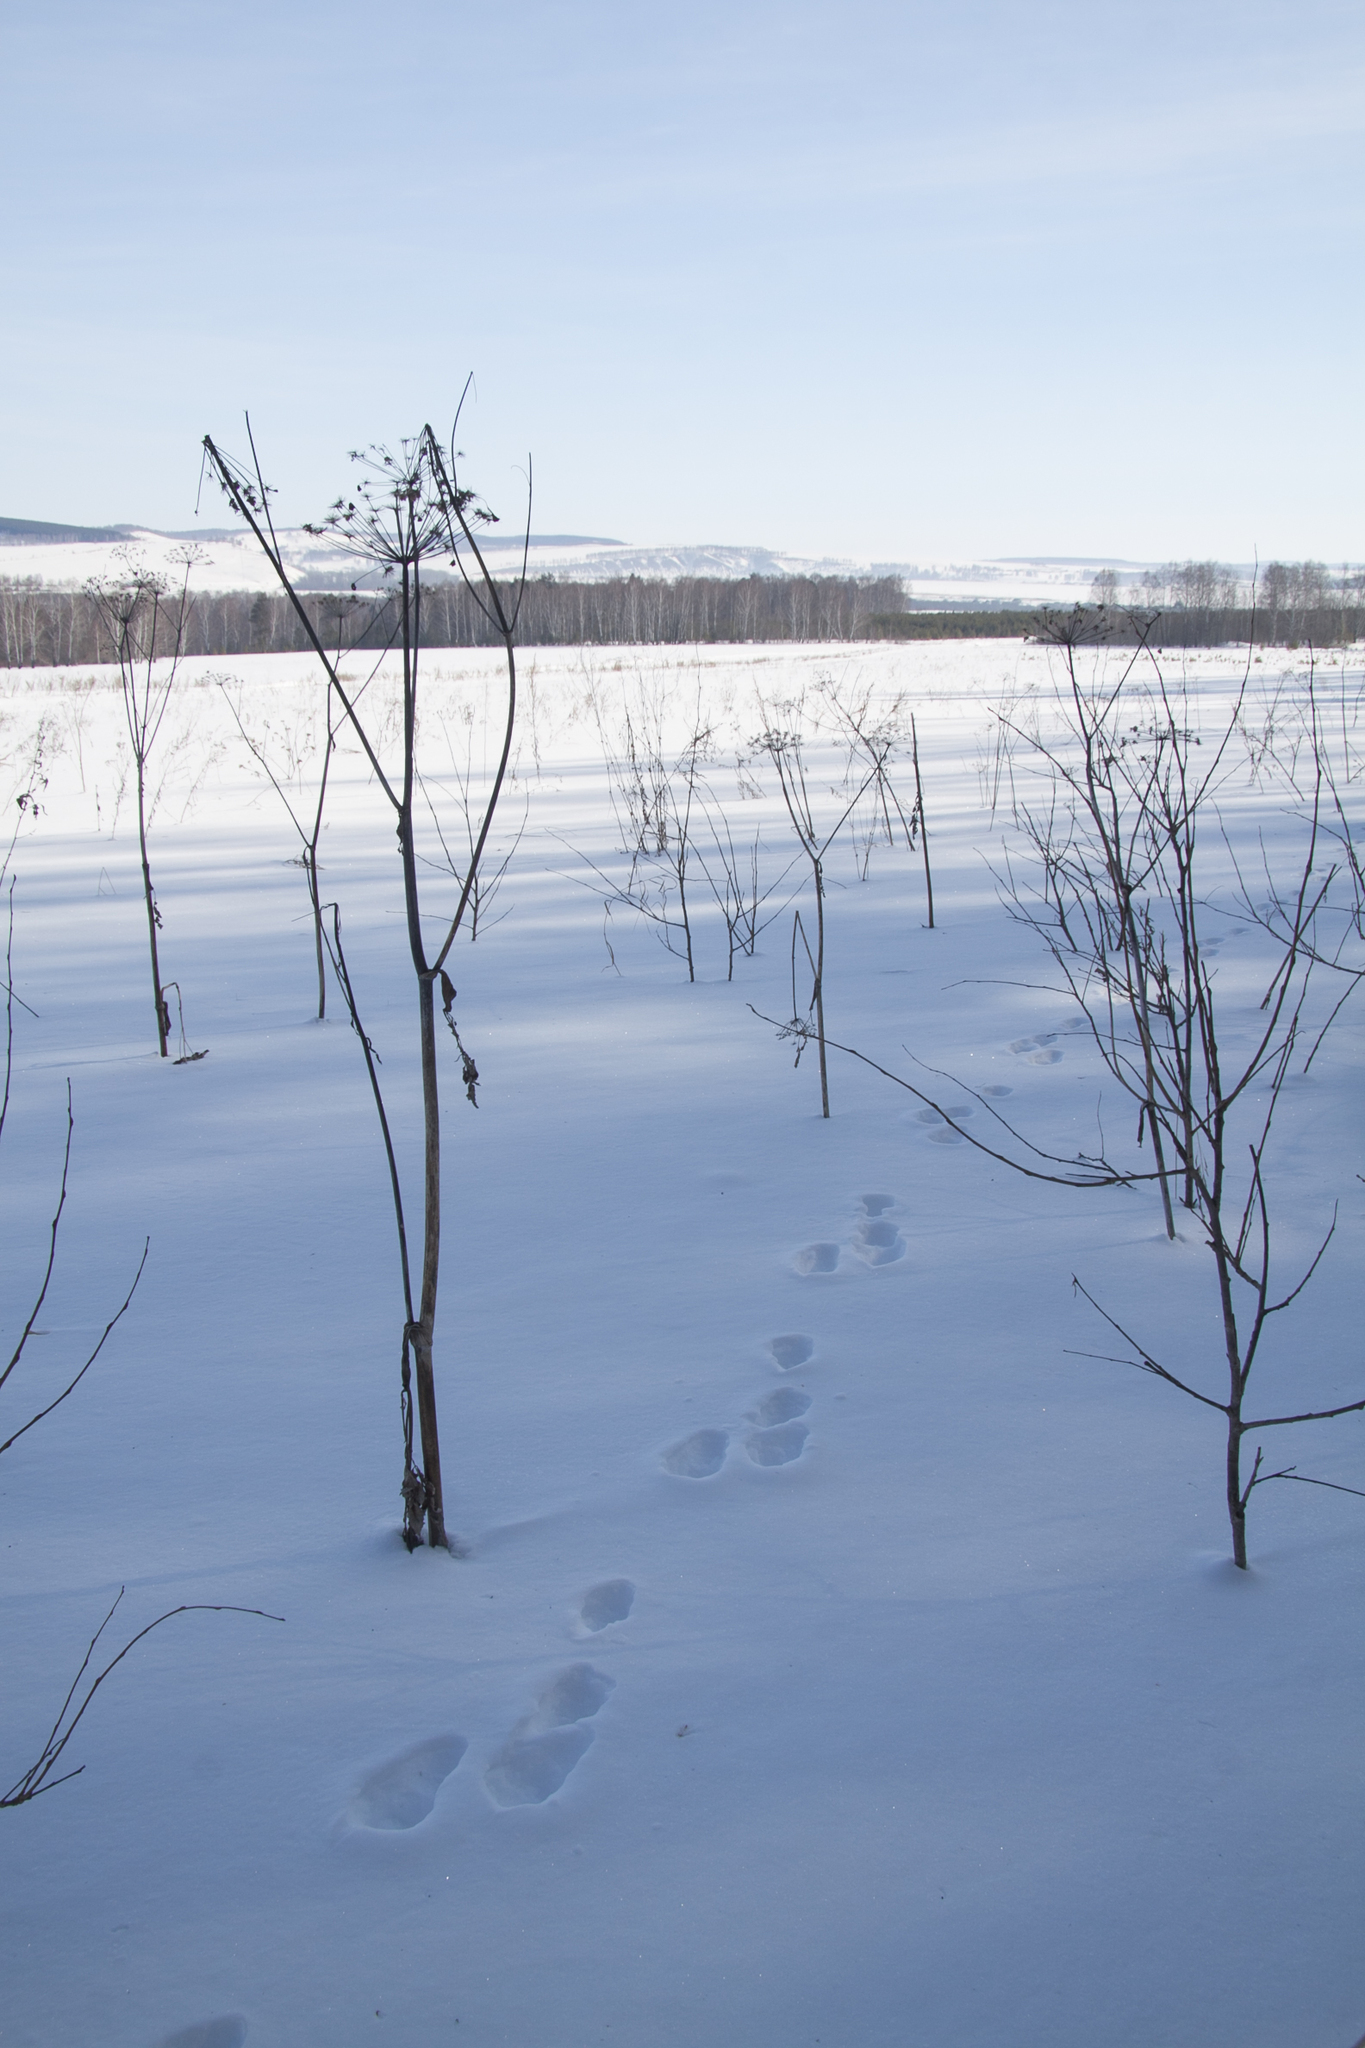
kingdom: Animalia
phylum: Chordata
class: Mammalia
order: Lagomorpha
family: Leporidae
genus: Lepus
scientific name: Lepus timidus
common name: Mountain hare
